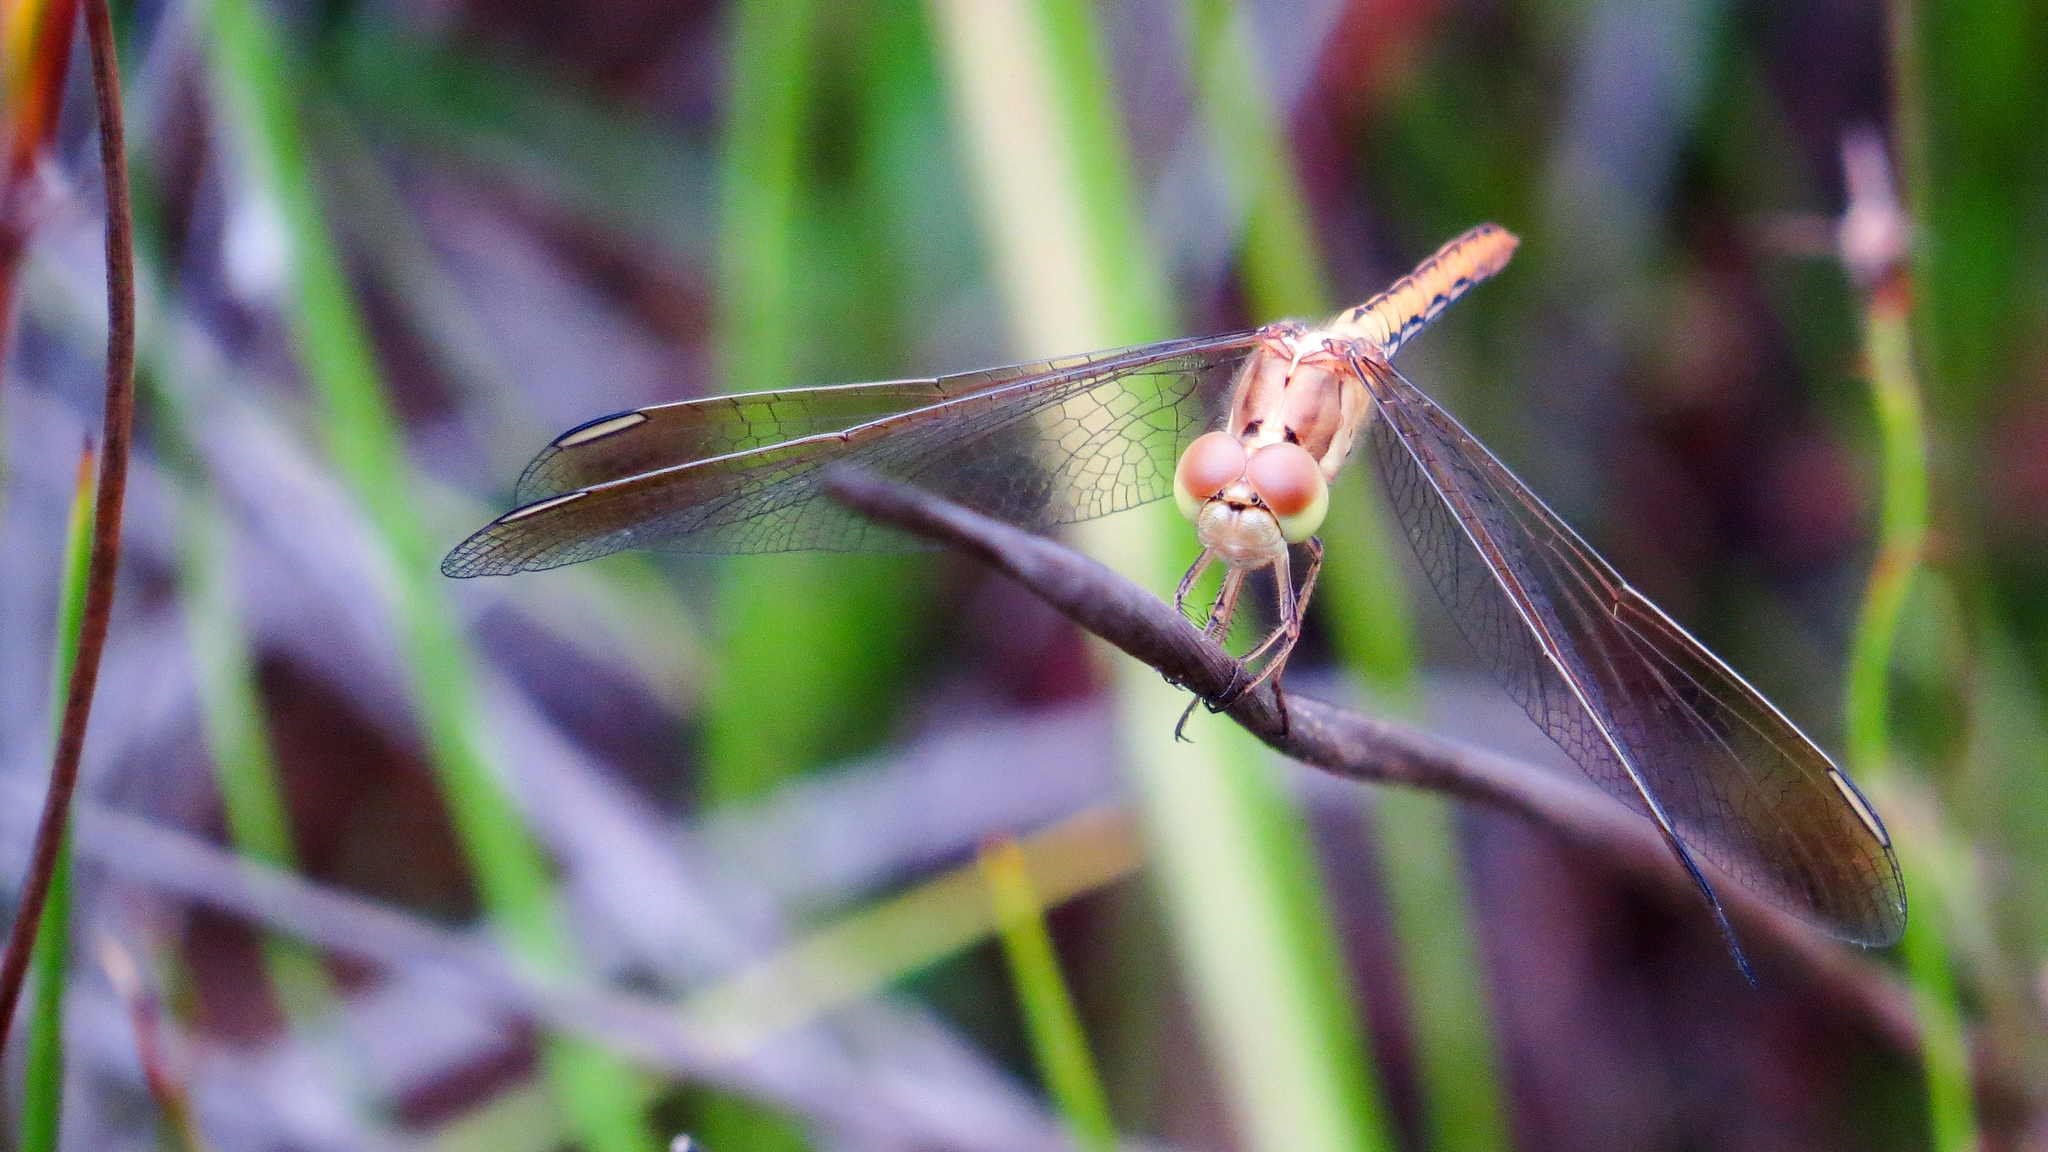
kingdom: Animalia
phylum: Arthropoda
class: Insecta
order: Odonata
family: Libellulidae
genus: Diplacodes
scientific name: Diplacodes haematodes
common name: Scarlet percher
